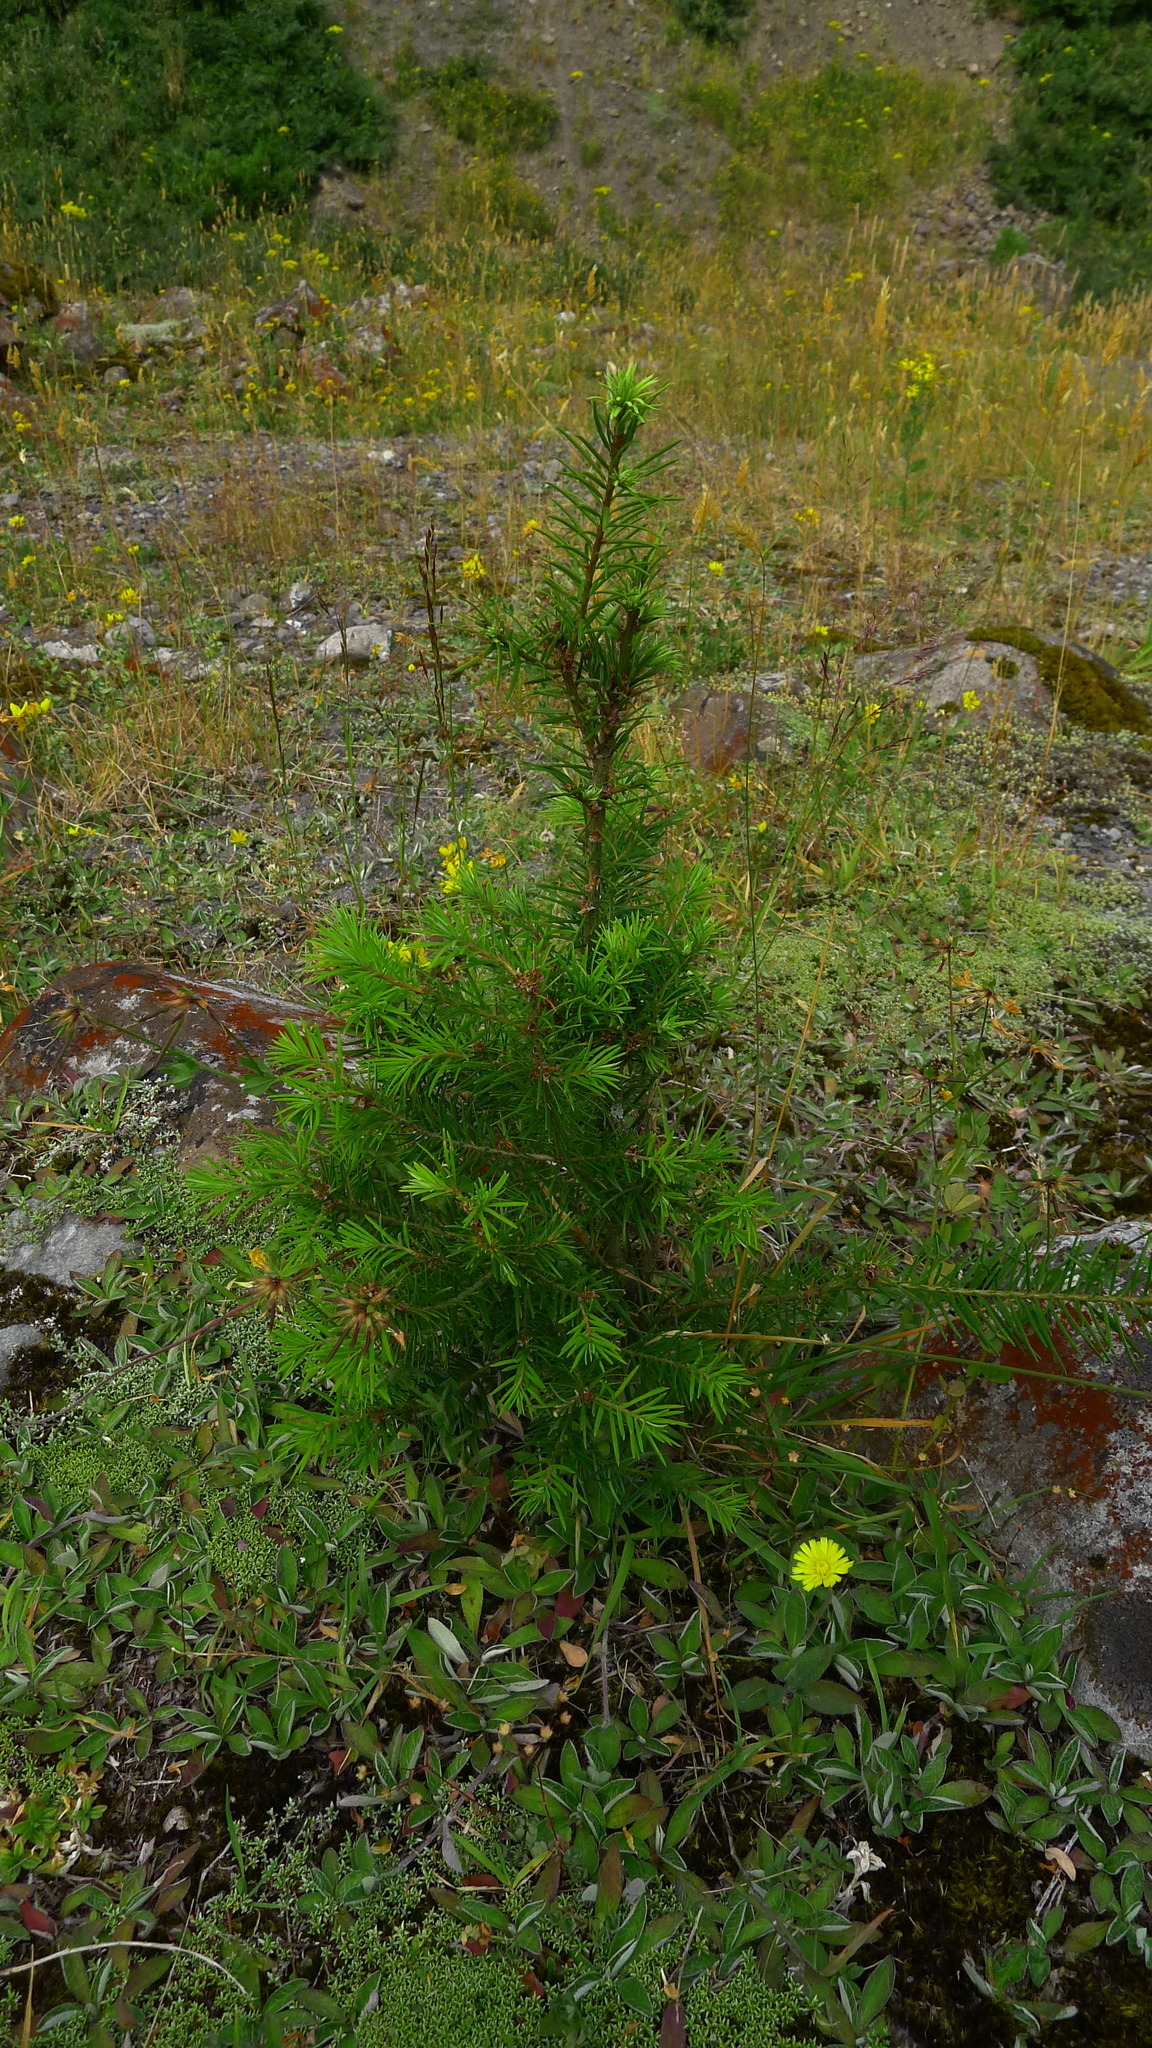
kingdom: Plantae
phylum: Tracheophyta
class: Pinopsida
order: Pinales
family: Pinaceae
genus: Pseudotsuga
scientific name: Pseudotsuga menziesii
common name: Douglas fir
